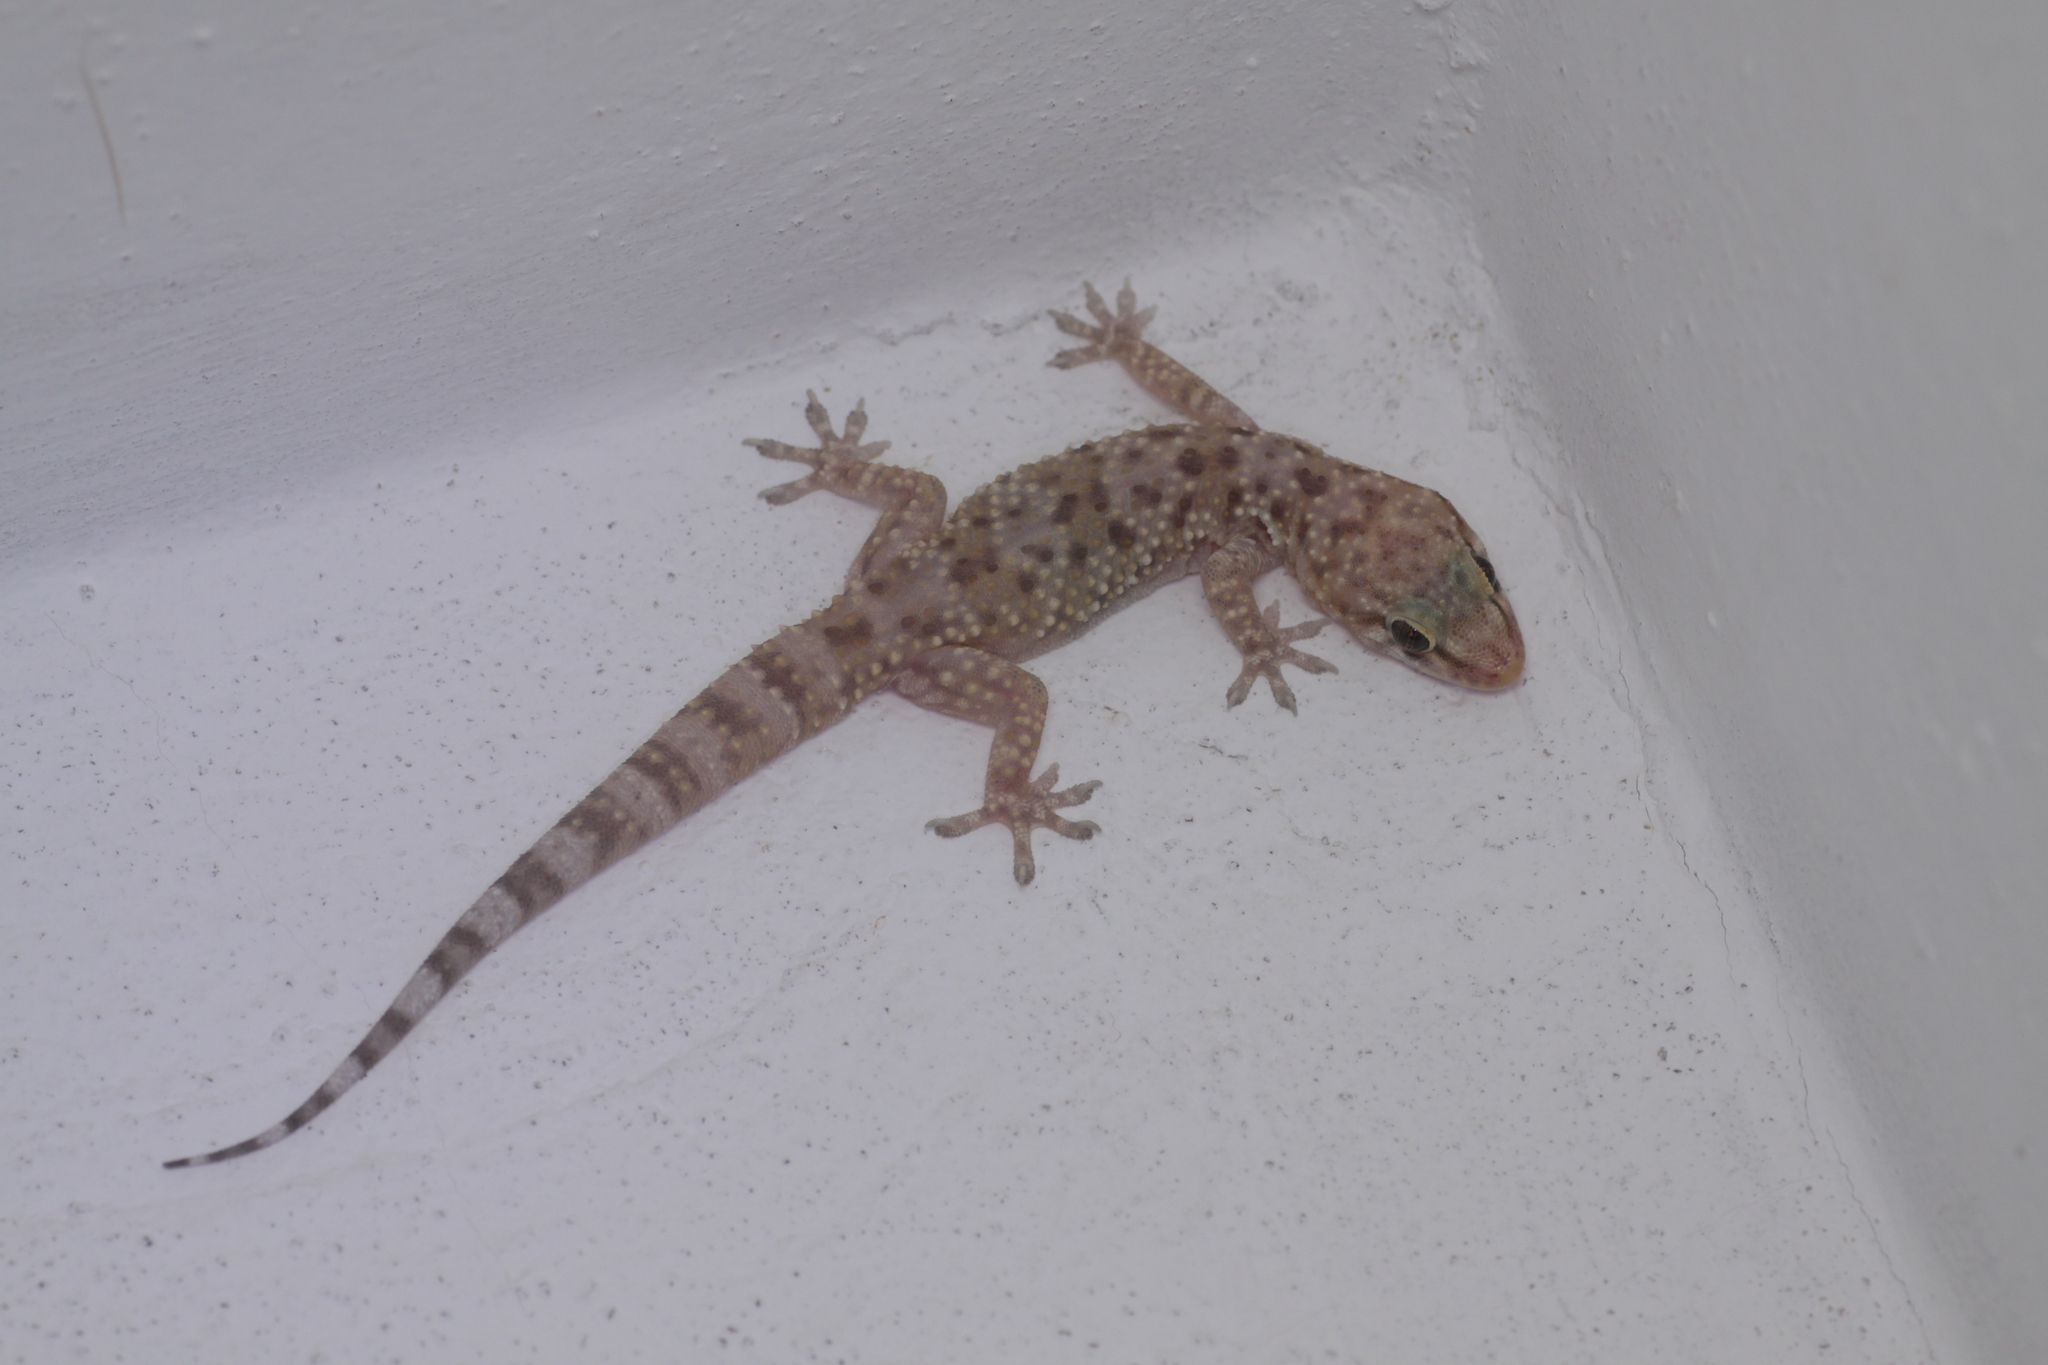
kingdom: Animalia
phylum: Chordata
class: Squamata
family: Gekkonidae
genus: Hemidactylus
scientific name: Hemidactylus turcicus
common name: Turkish gecko
